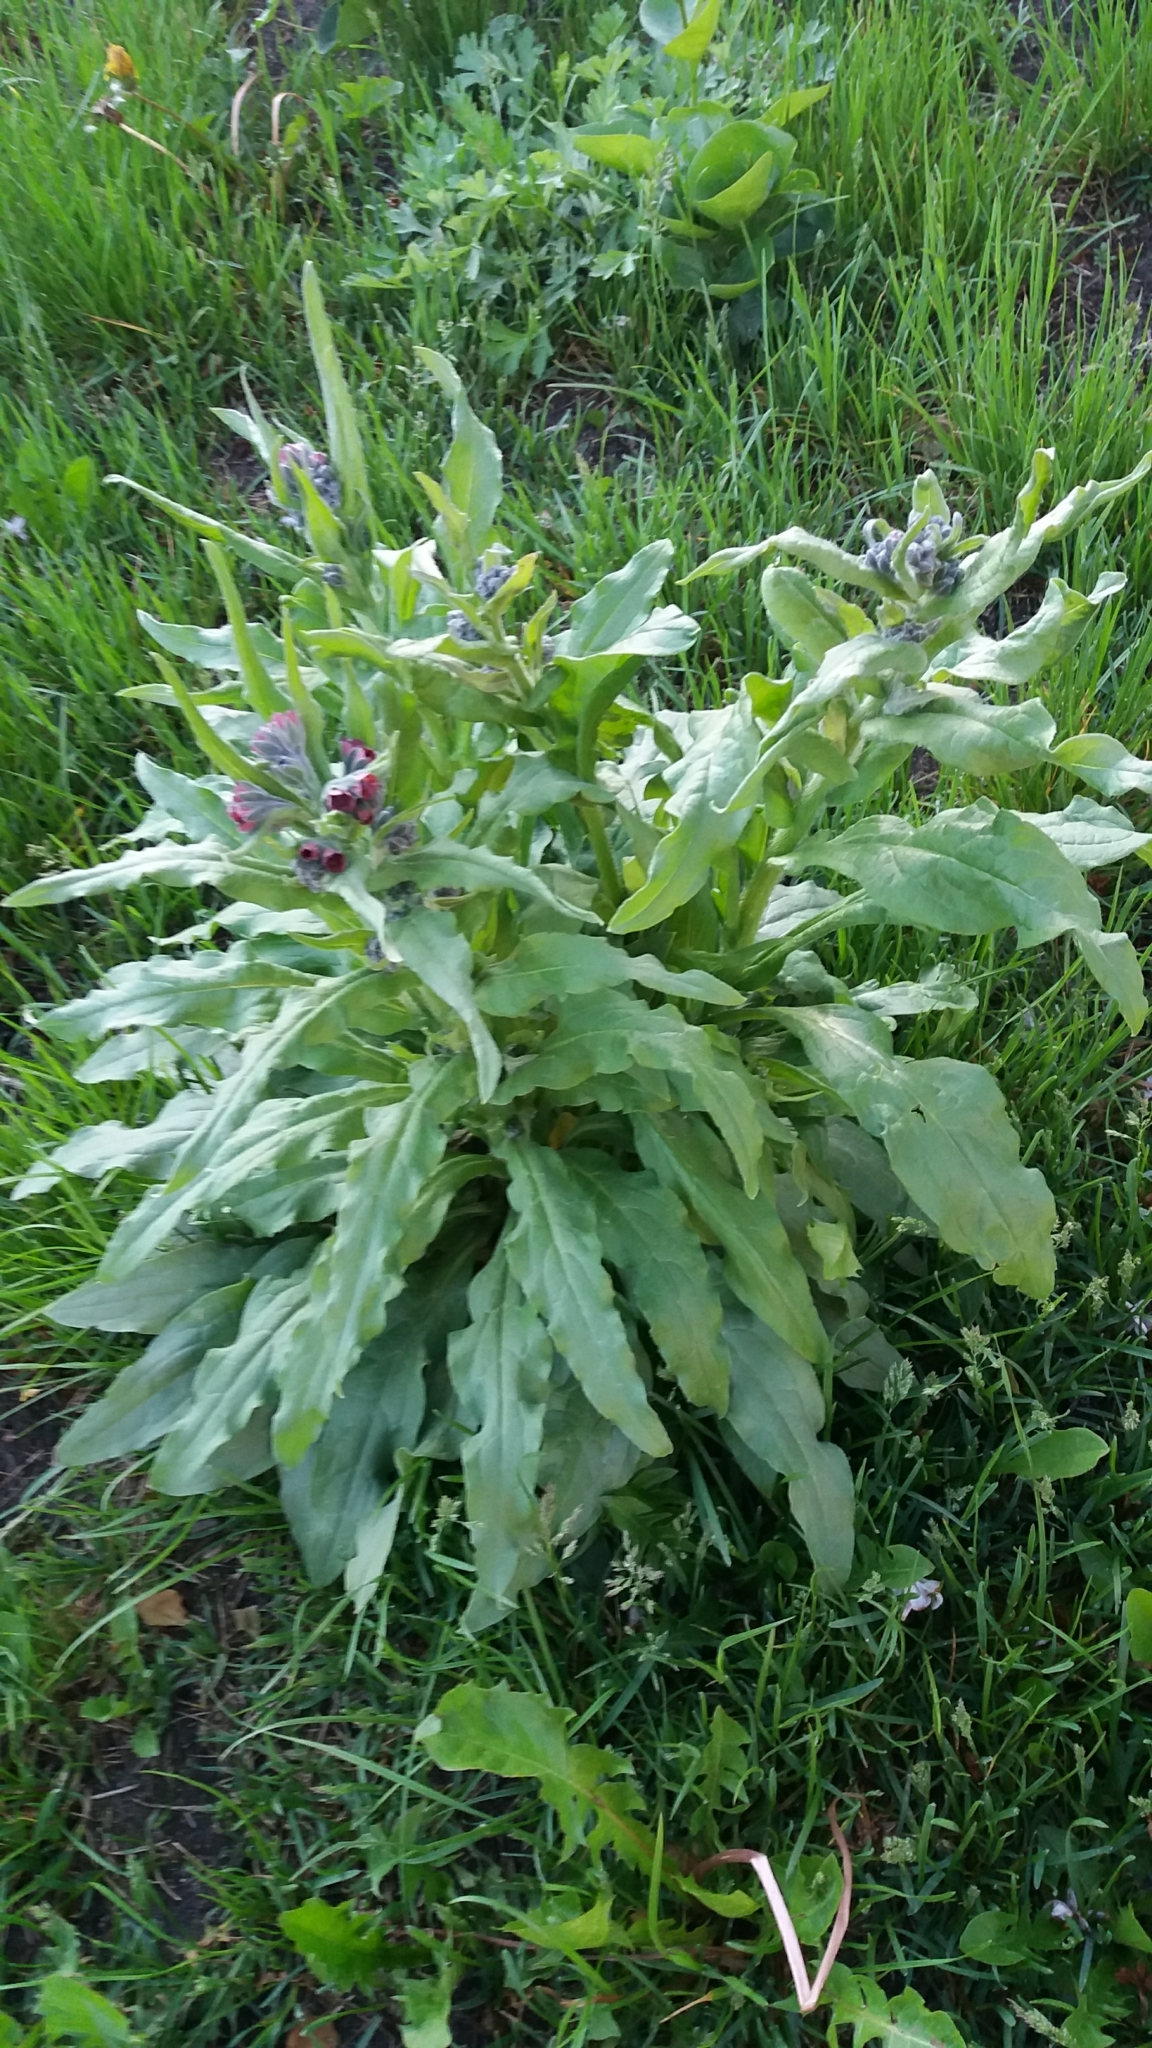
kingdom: Plantae
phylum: Tracheophyta
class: Magnoliopsida
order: Boraginales
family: Boraginaceae
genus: Cynoglossum
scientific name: Cynoglossum officinale
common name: Hound's-tongue
